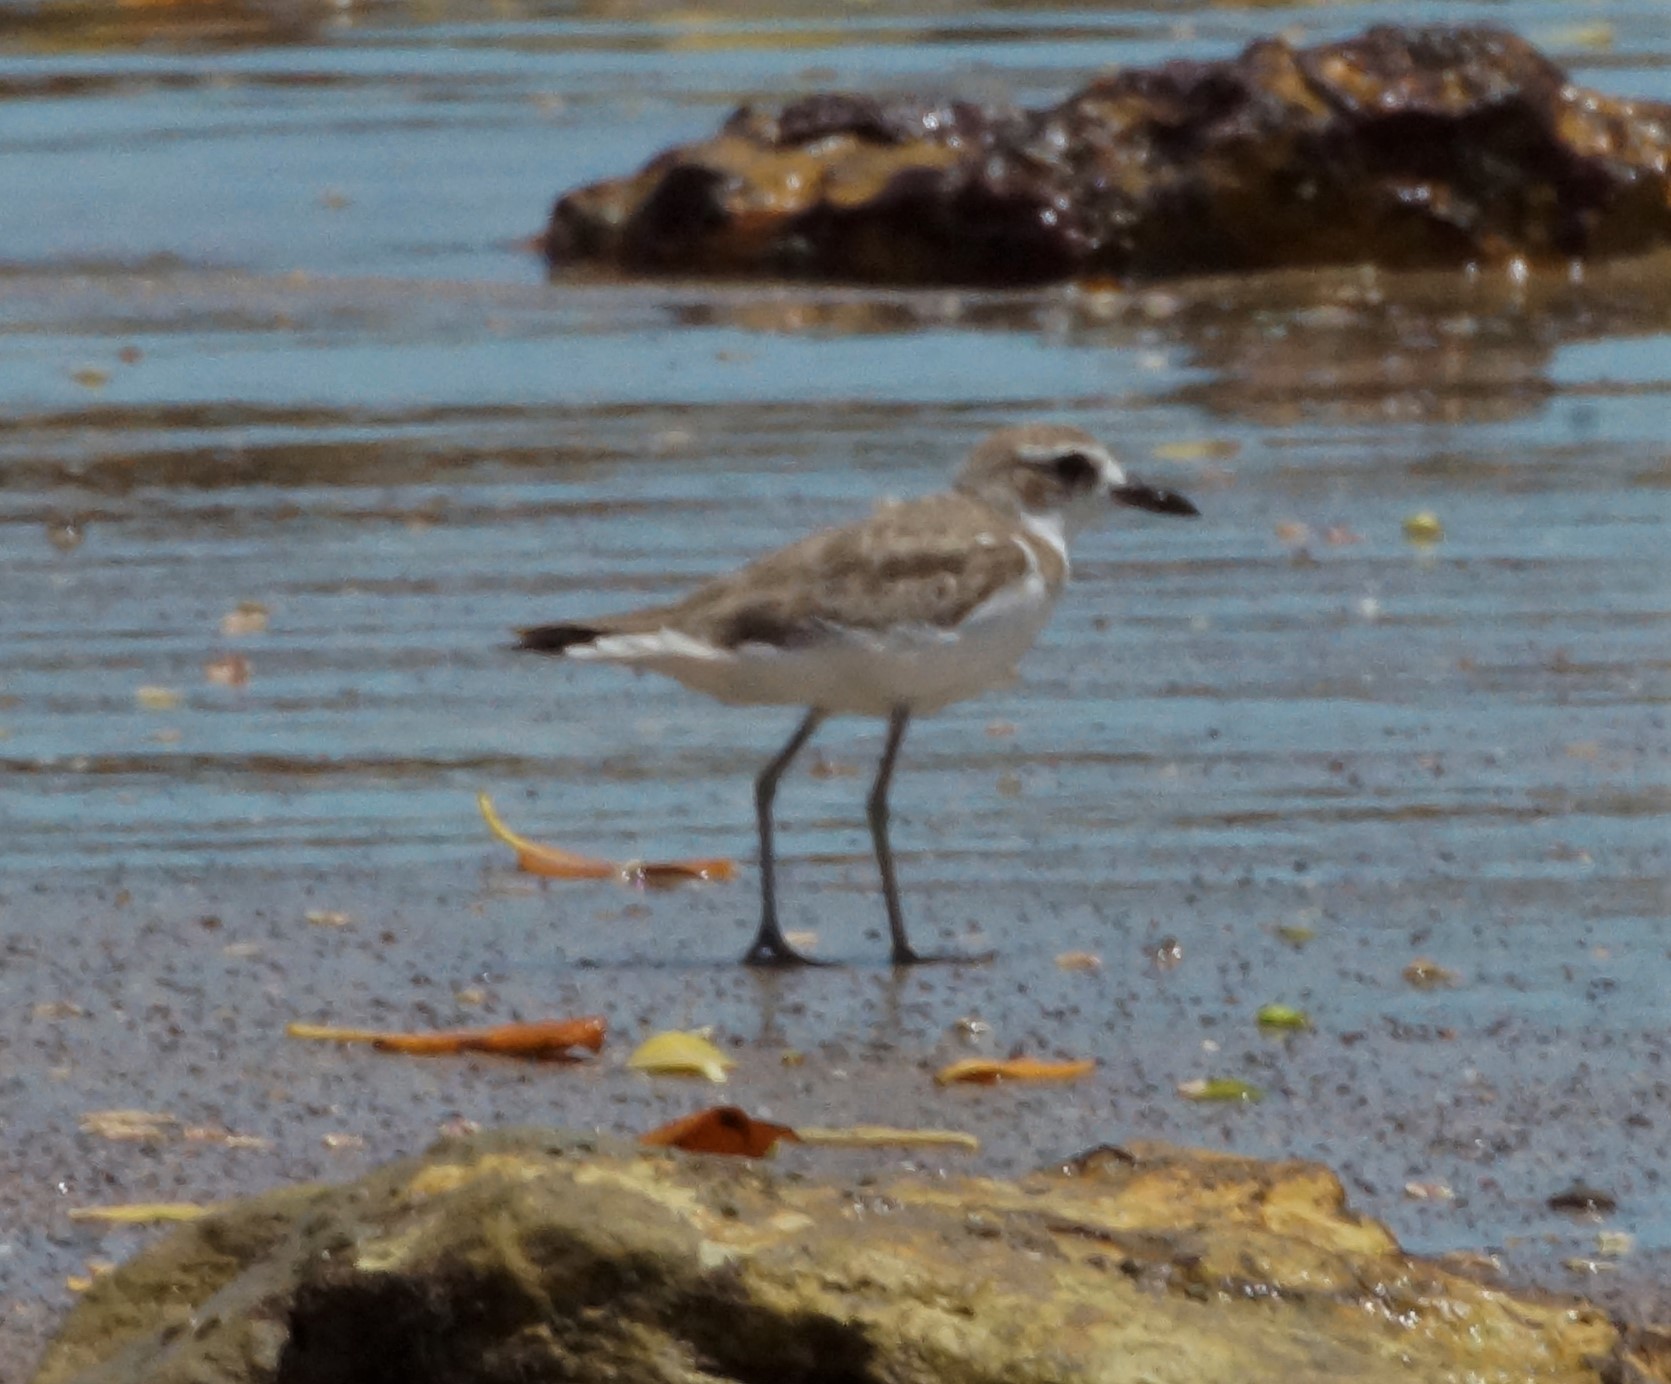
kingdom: Animalia
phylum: Chordata
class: Aves
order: Charadriiformes
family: Charadriidae
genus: Charadrius
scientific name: Charadrius leschenaultii
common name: Greater sand plover
